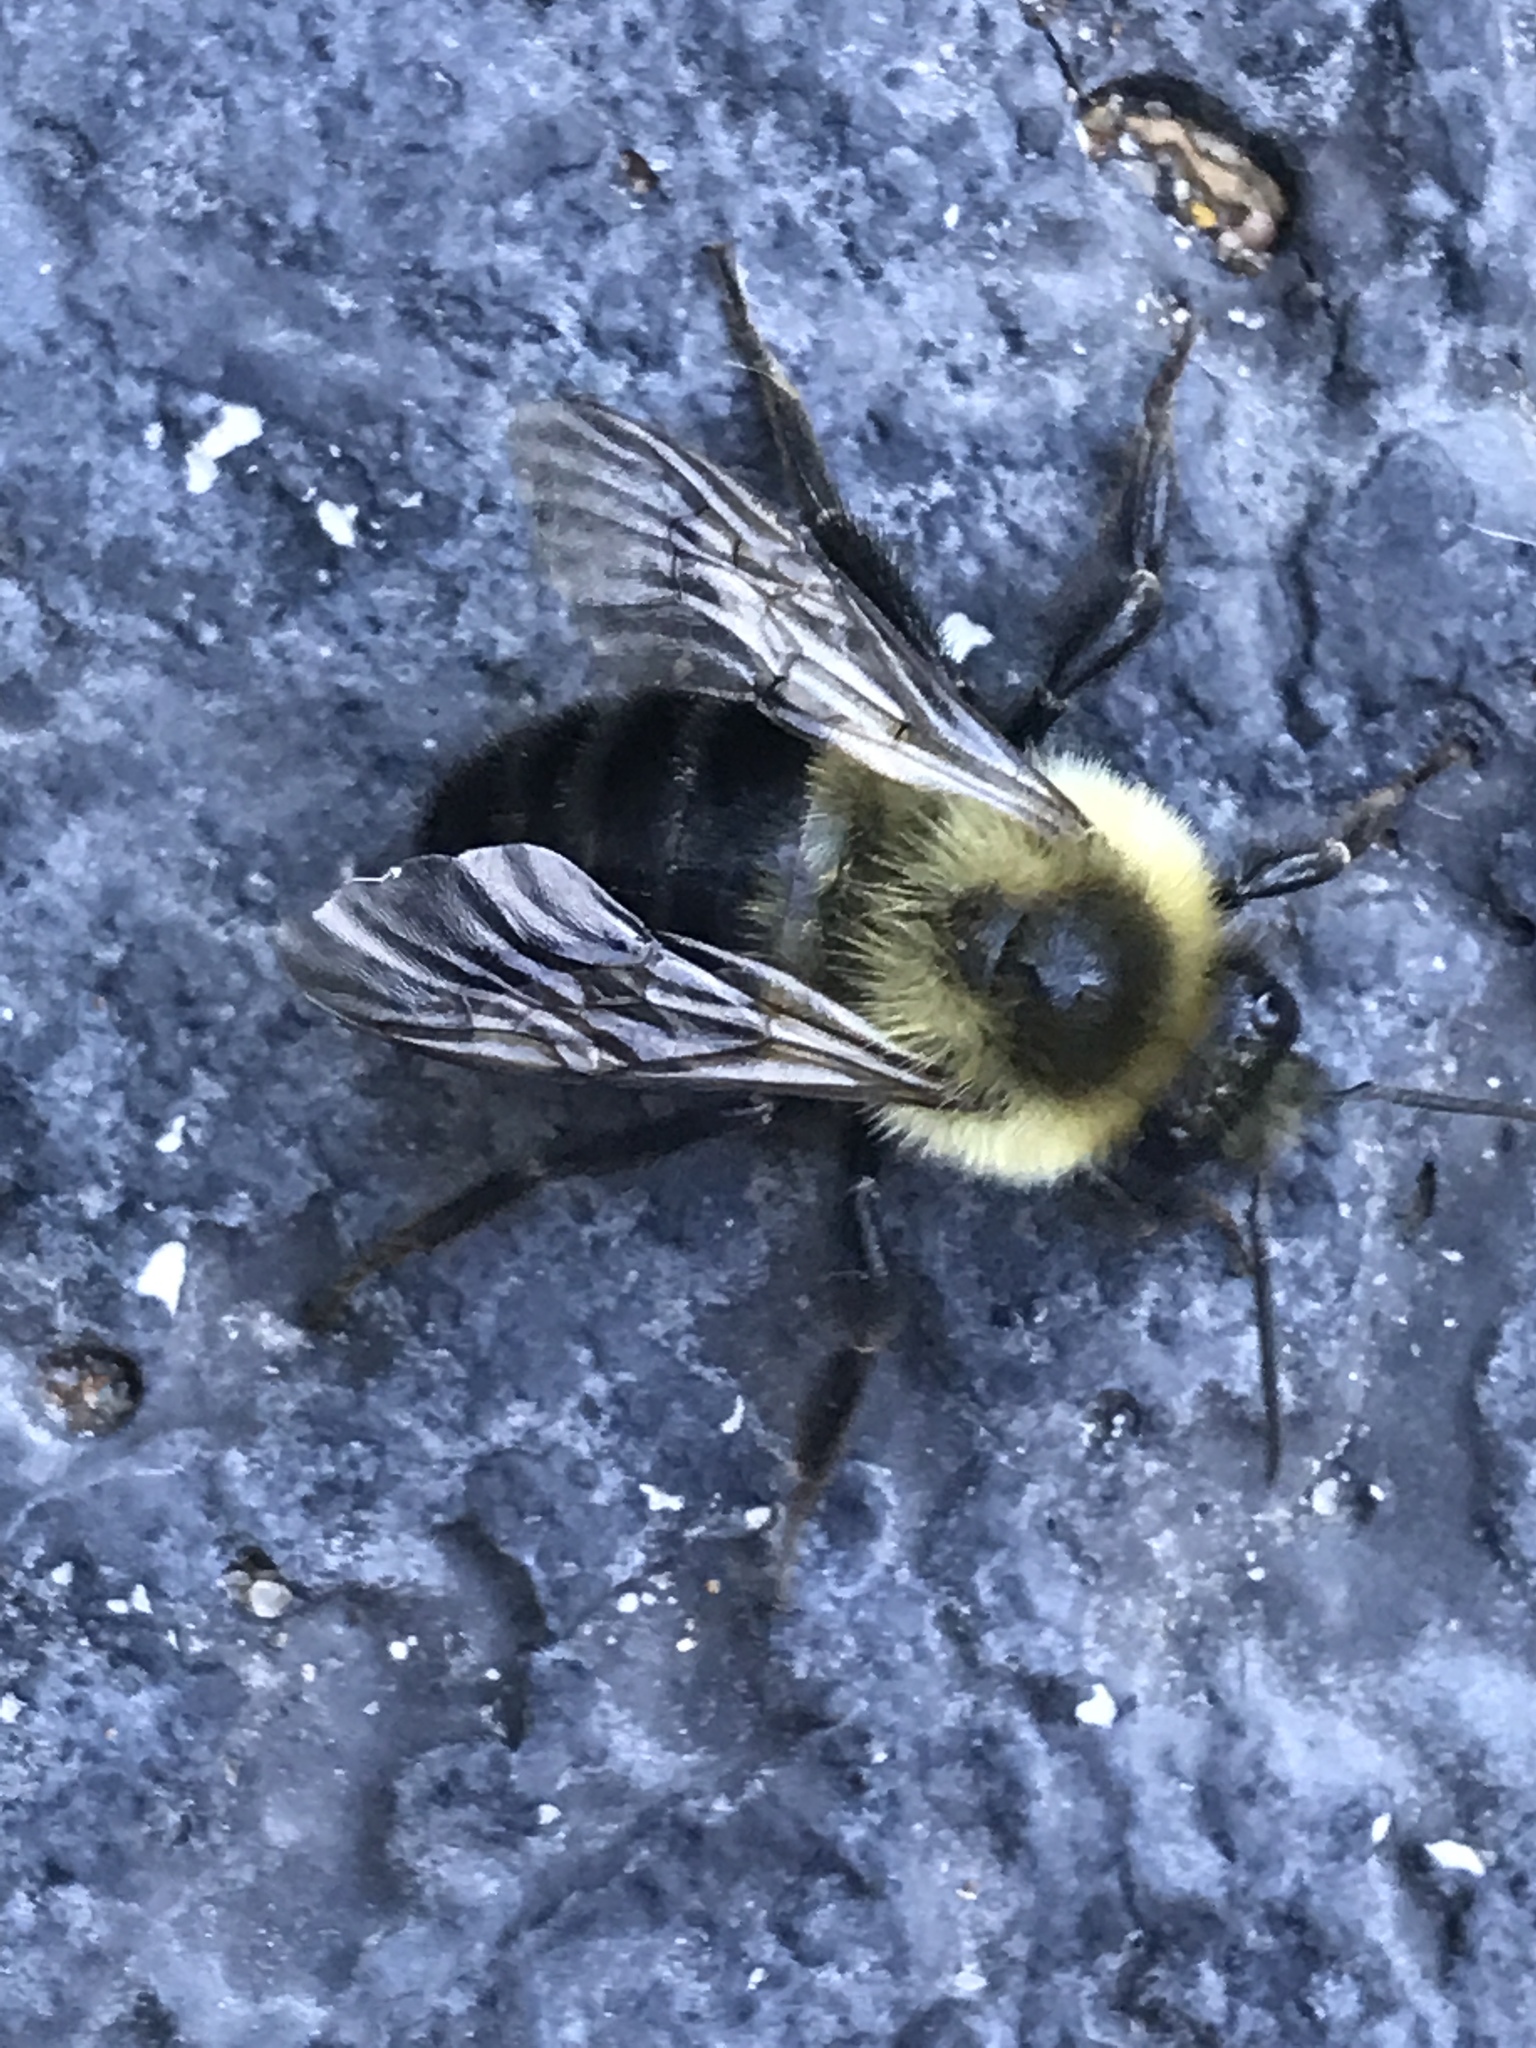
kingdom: Animalia
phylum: Arthropoda
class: Insecta
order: Hymenoptera
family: Apidae
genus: Bombus
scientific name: Bombus impatiens
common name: Common eastern bumble bee
